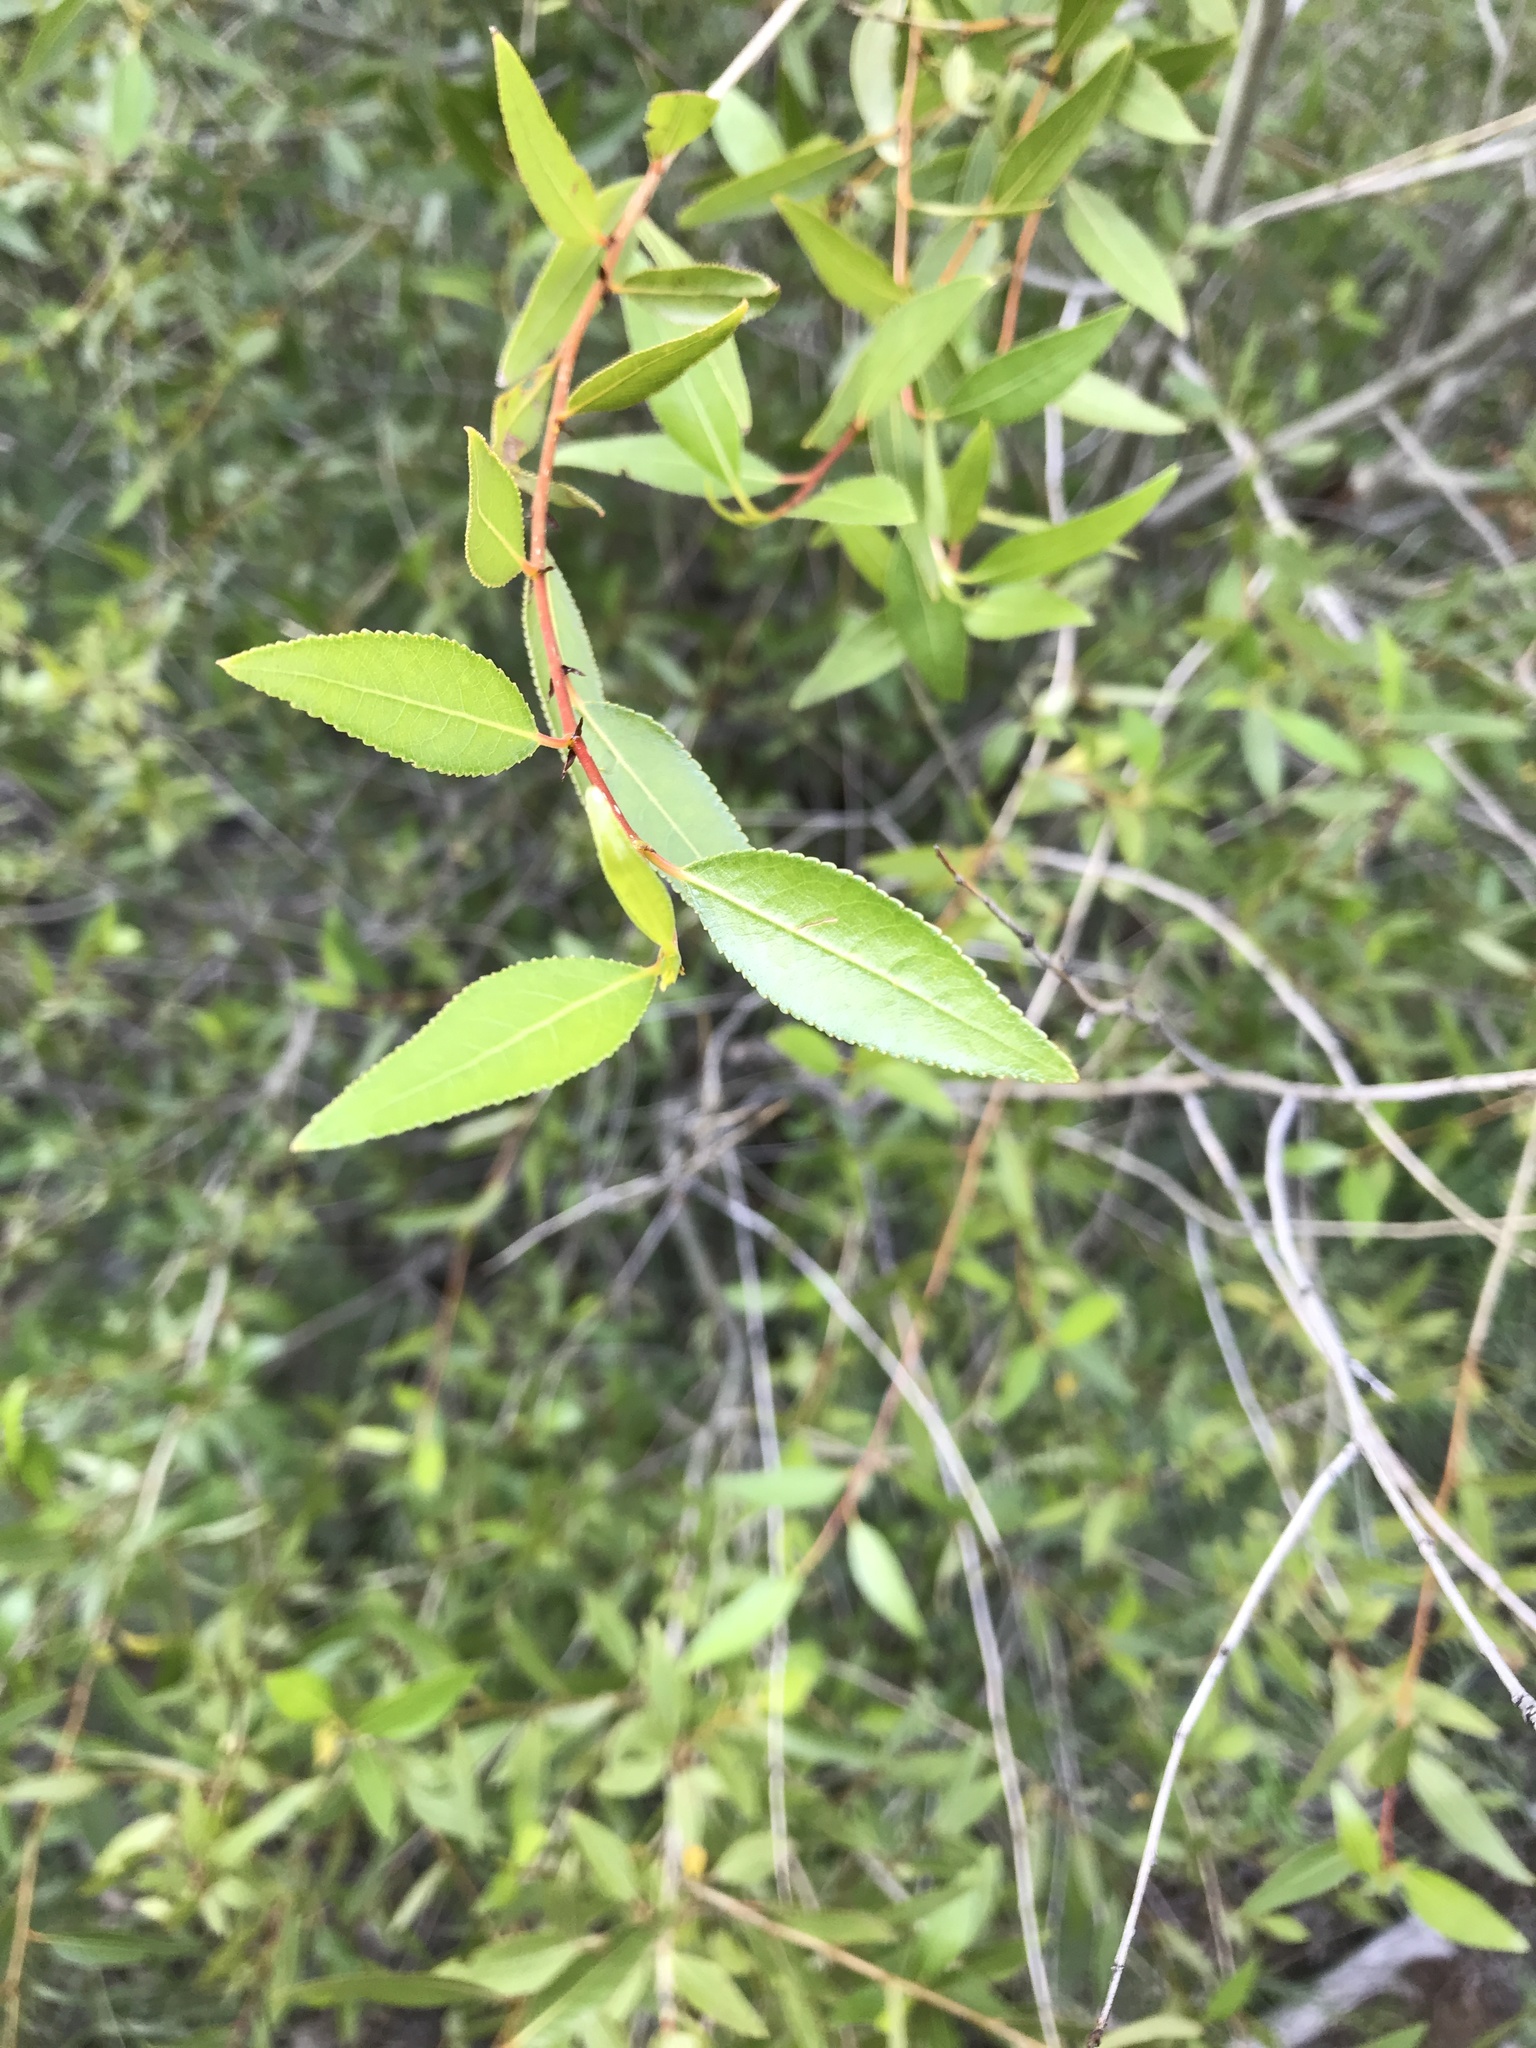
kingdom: Plantae
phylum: Tracheophyta
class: Magnoliopsida
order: Malpighiales
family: Salicaceae
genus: Populus
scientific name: Populus angustifolia
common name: Willow cottonwood
